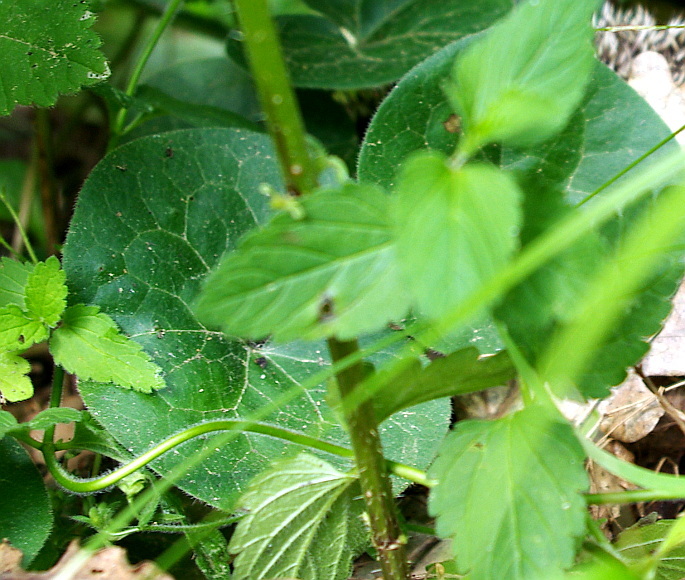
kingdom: Plantae
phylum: Tracheophyta
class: Magnoliopsida
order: Piperales
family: Aristolochiaceae
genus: Asarum
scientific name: Asarum europaeum
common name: Asarabacca
